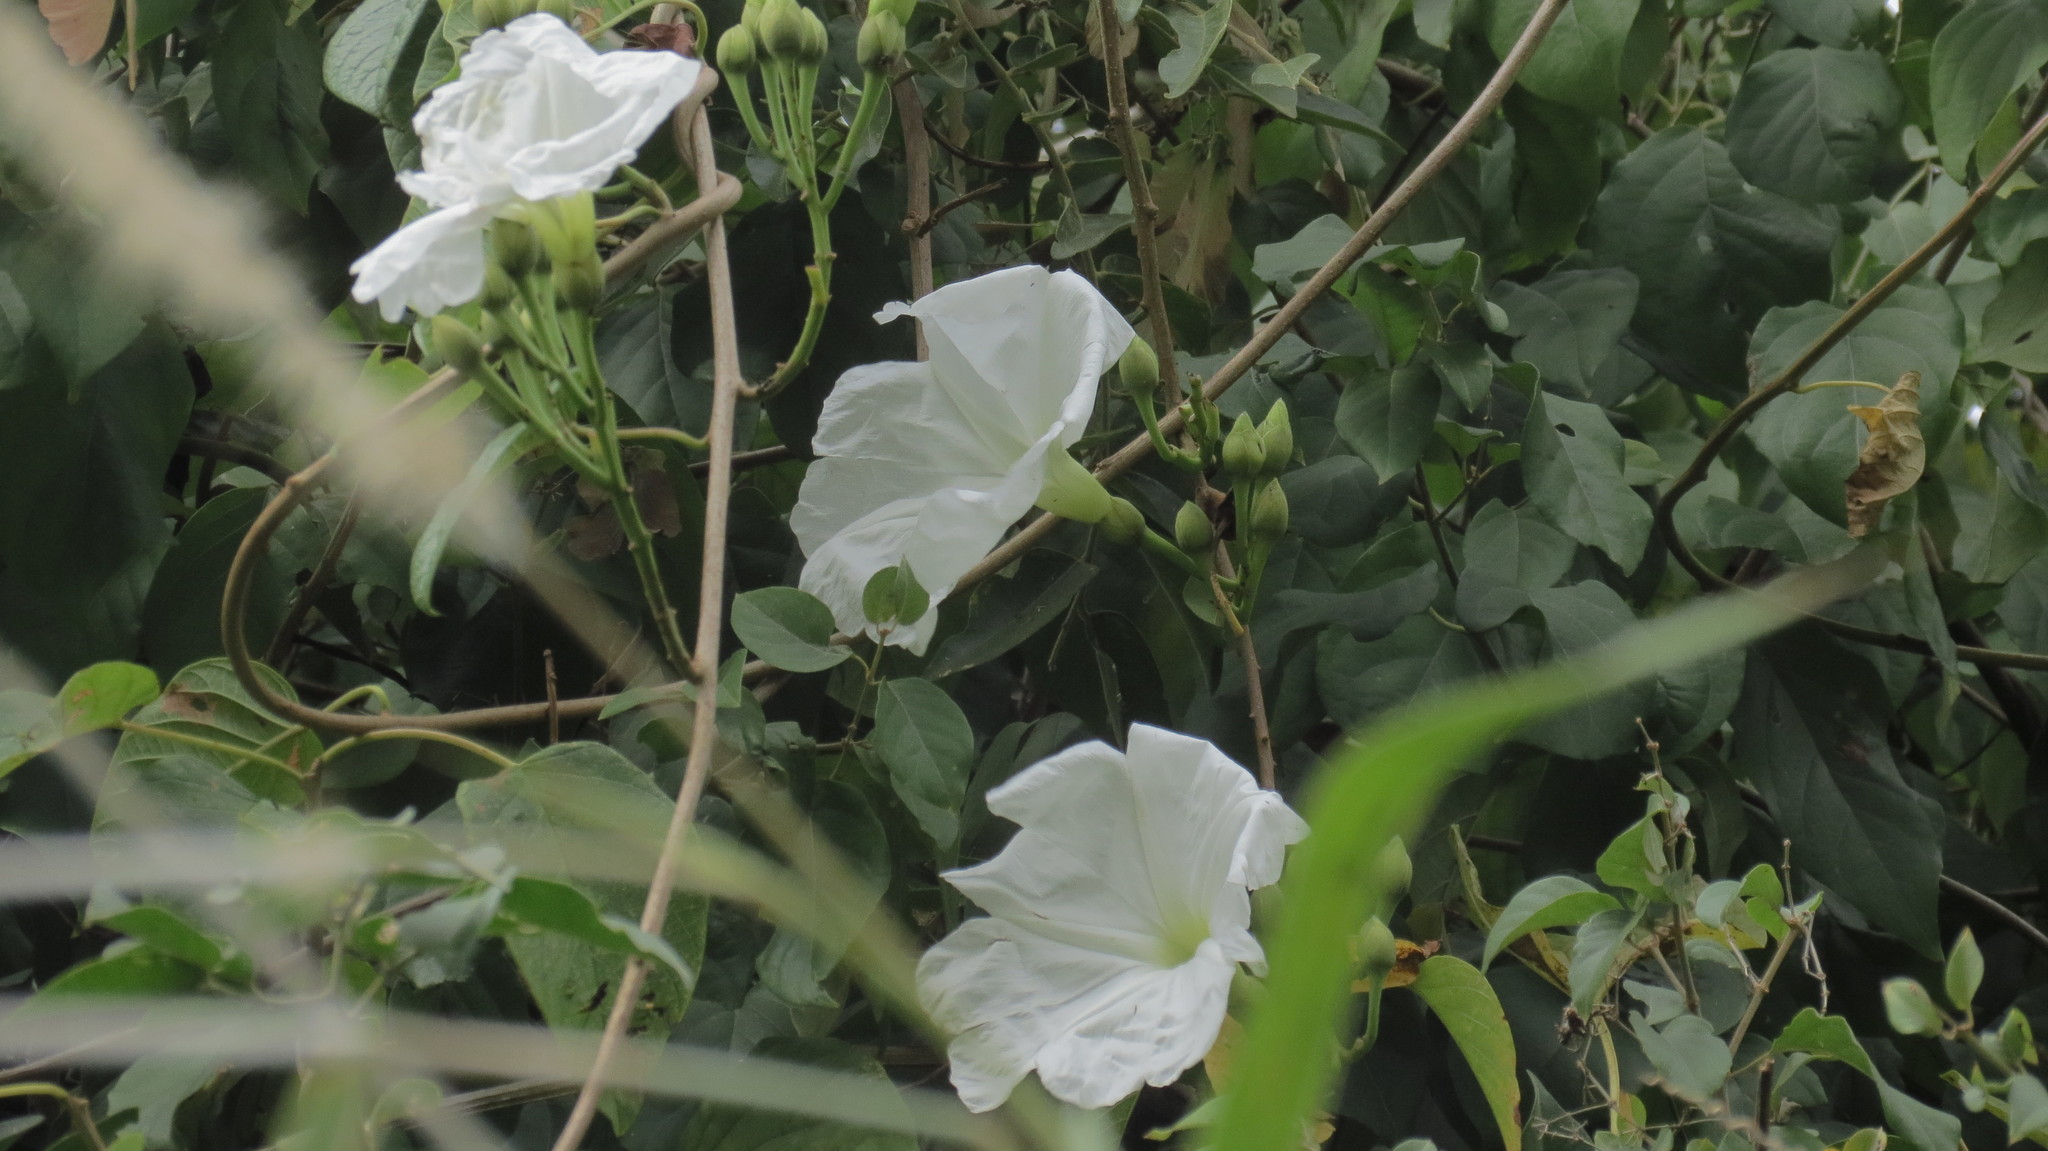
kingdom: Plantae
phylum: Tracheophyta
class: Magnoliopsida
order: Solanales
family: Convolvulaceae
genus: Ipomoea
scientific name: Ipomoea alba
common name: Moonflower
